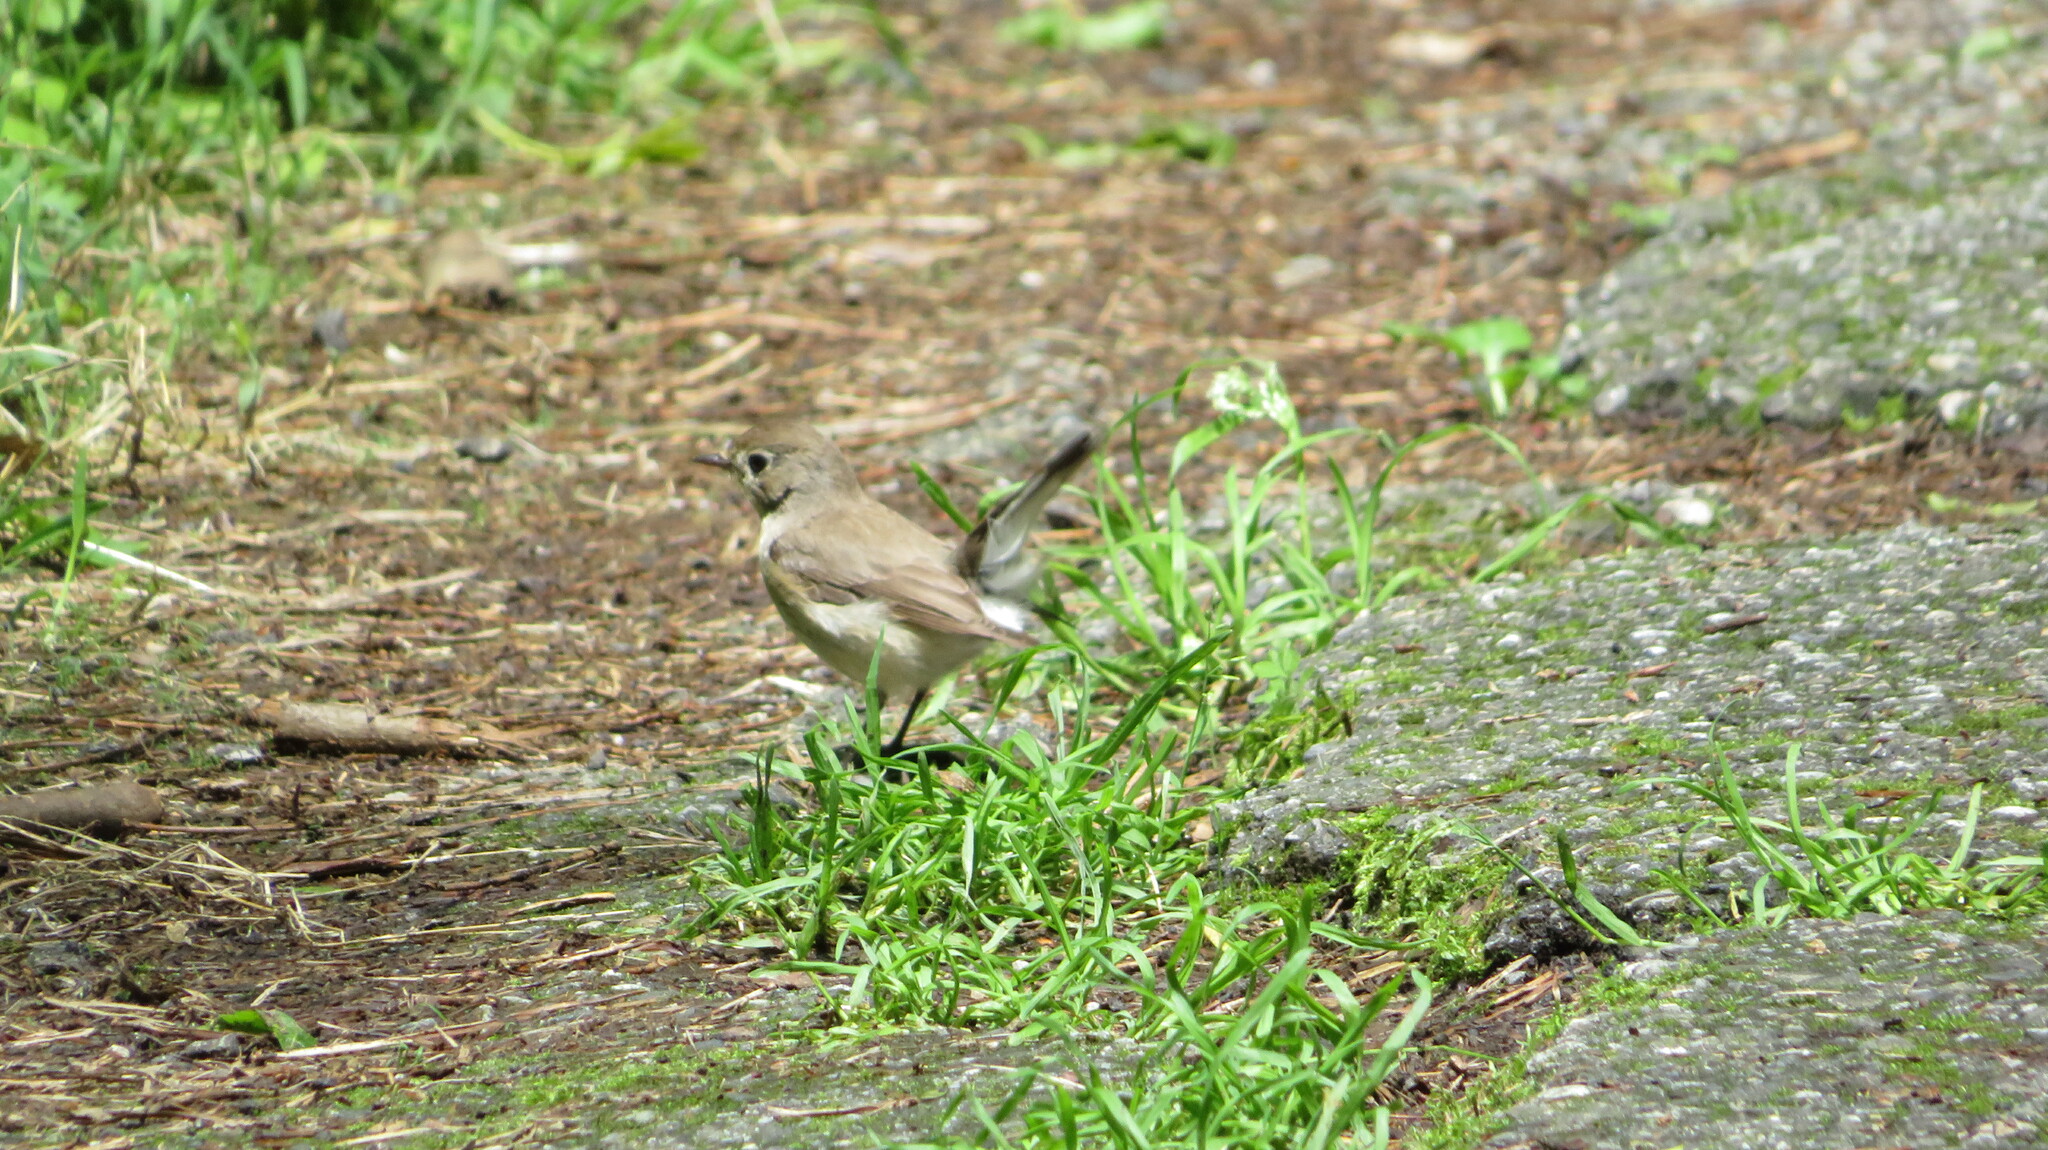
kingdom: Animalia
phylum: Chordata
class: Aves
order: Passeriformes
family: Muscicapidae
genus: Ficedula
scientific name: Ficedula parva
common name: Red-breasted flycatcher
